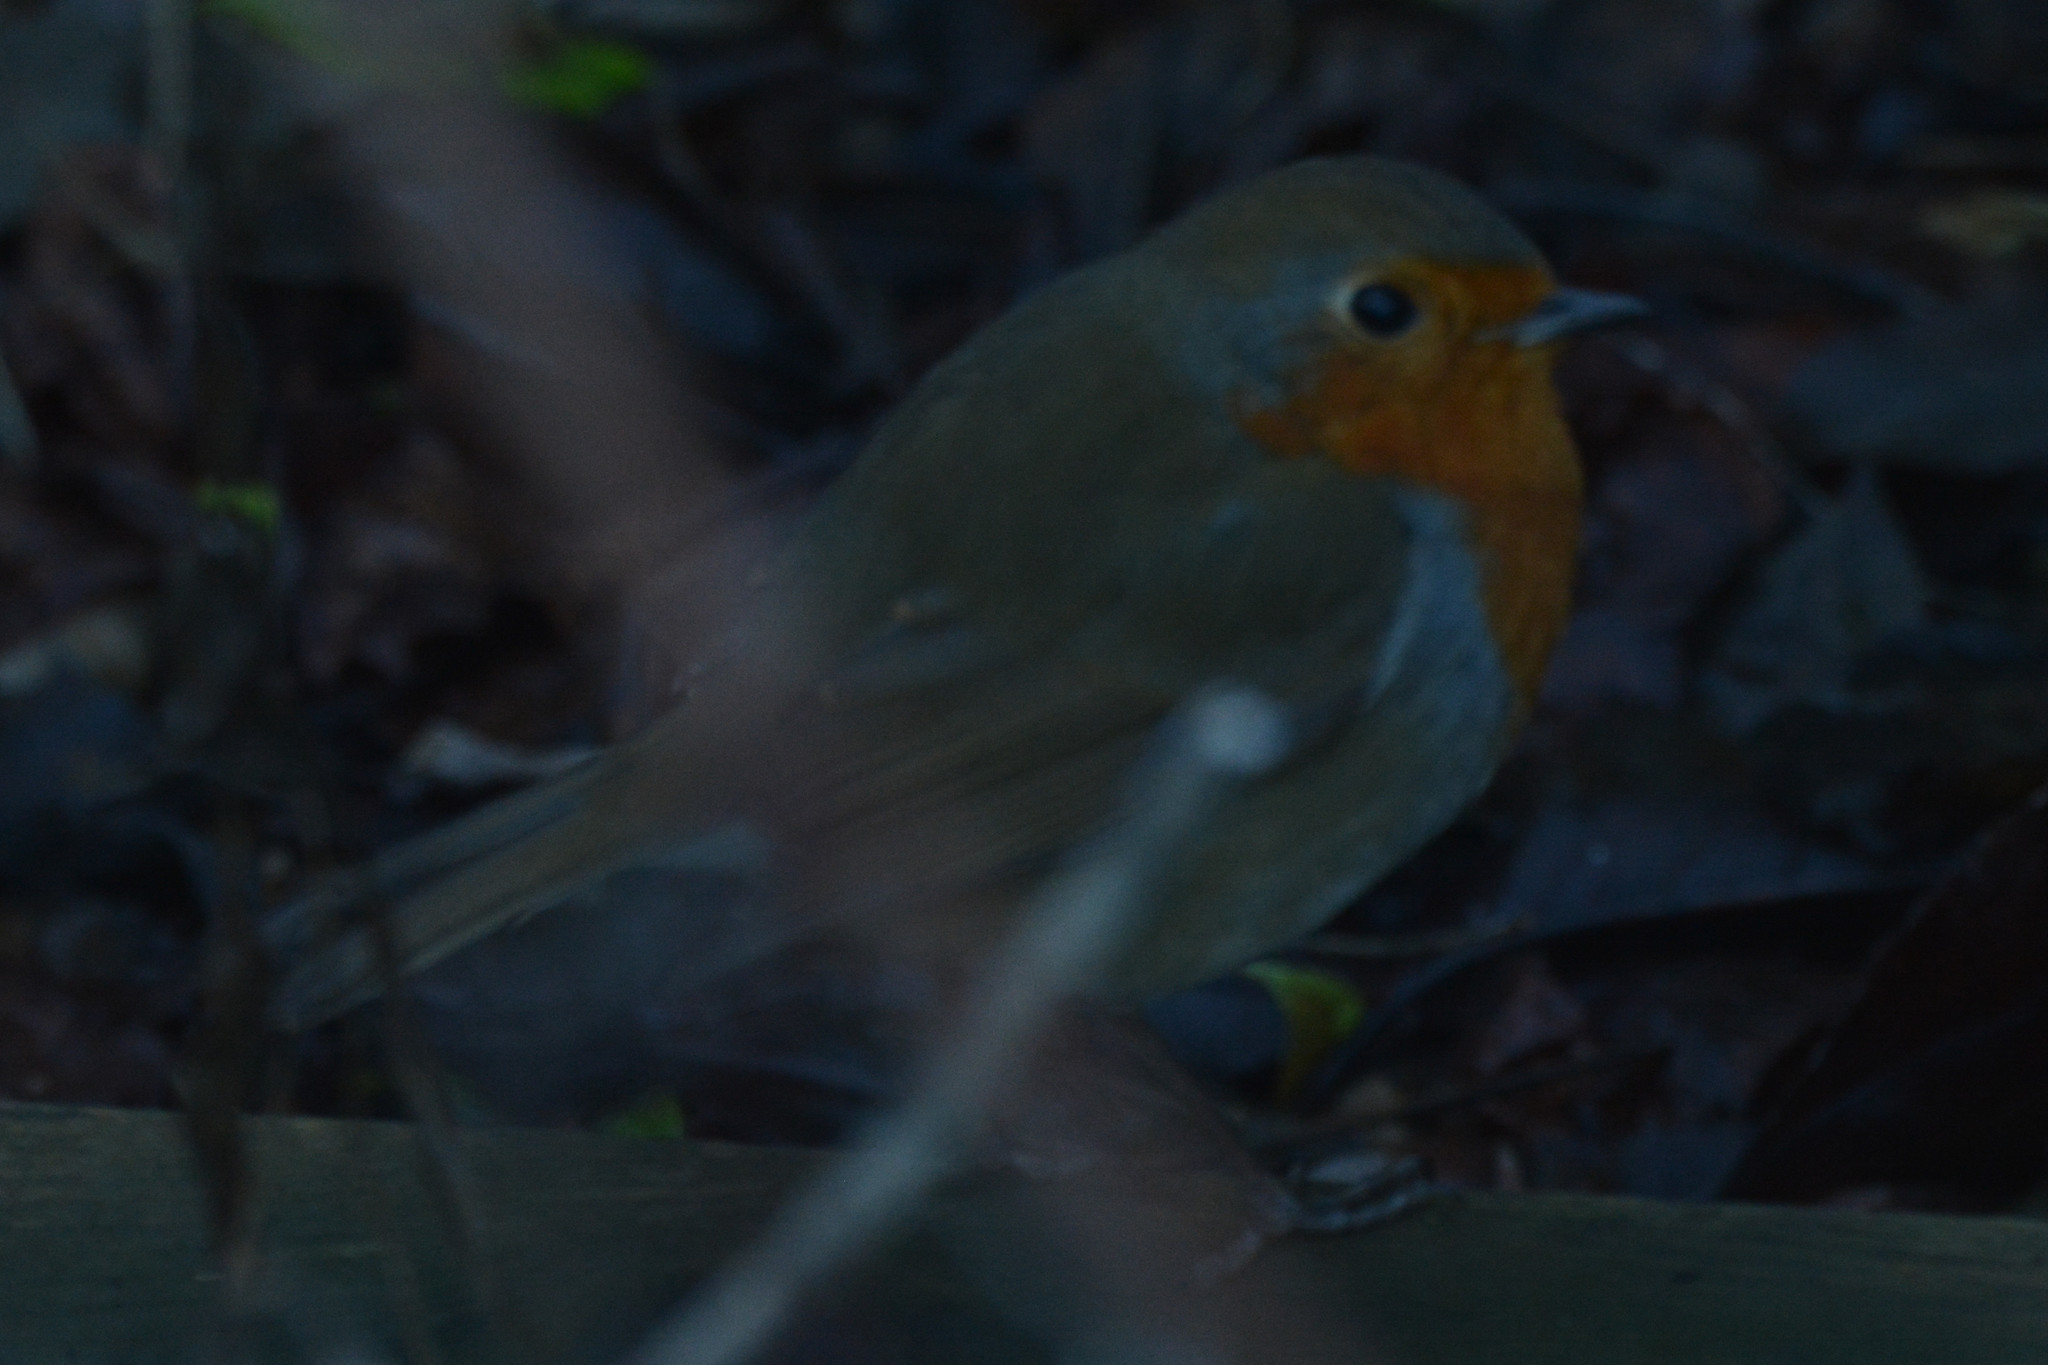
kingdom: Animalia
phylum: Chordata
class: Aves
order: Passeriformes
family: Muscicapidae
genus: Erithacus
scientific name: Erithacus rubecula
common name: European robin
